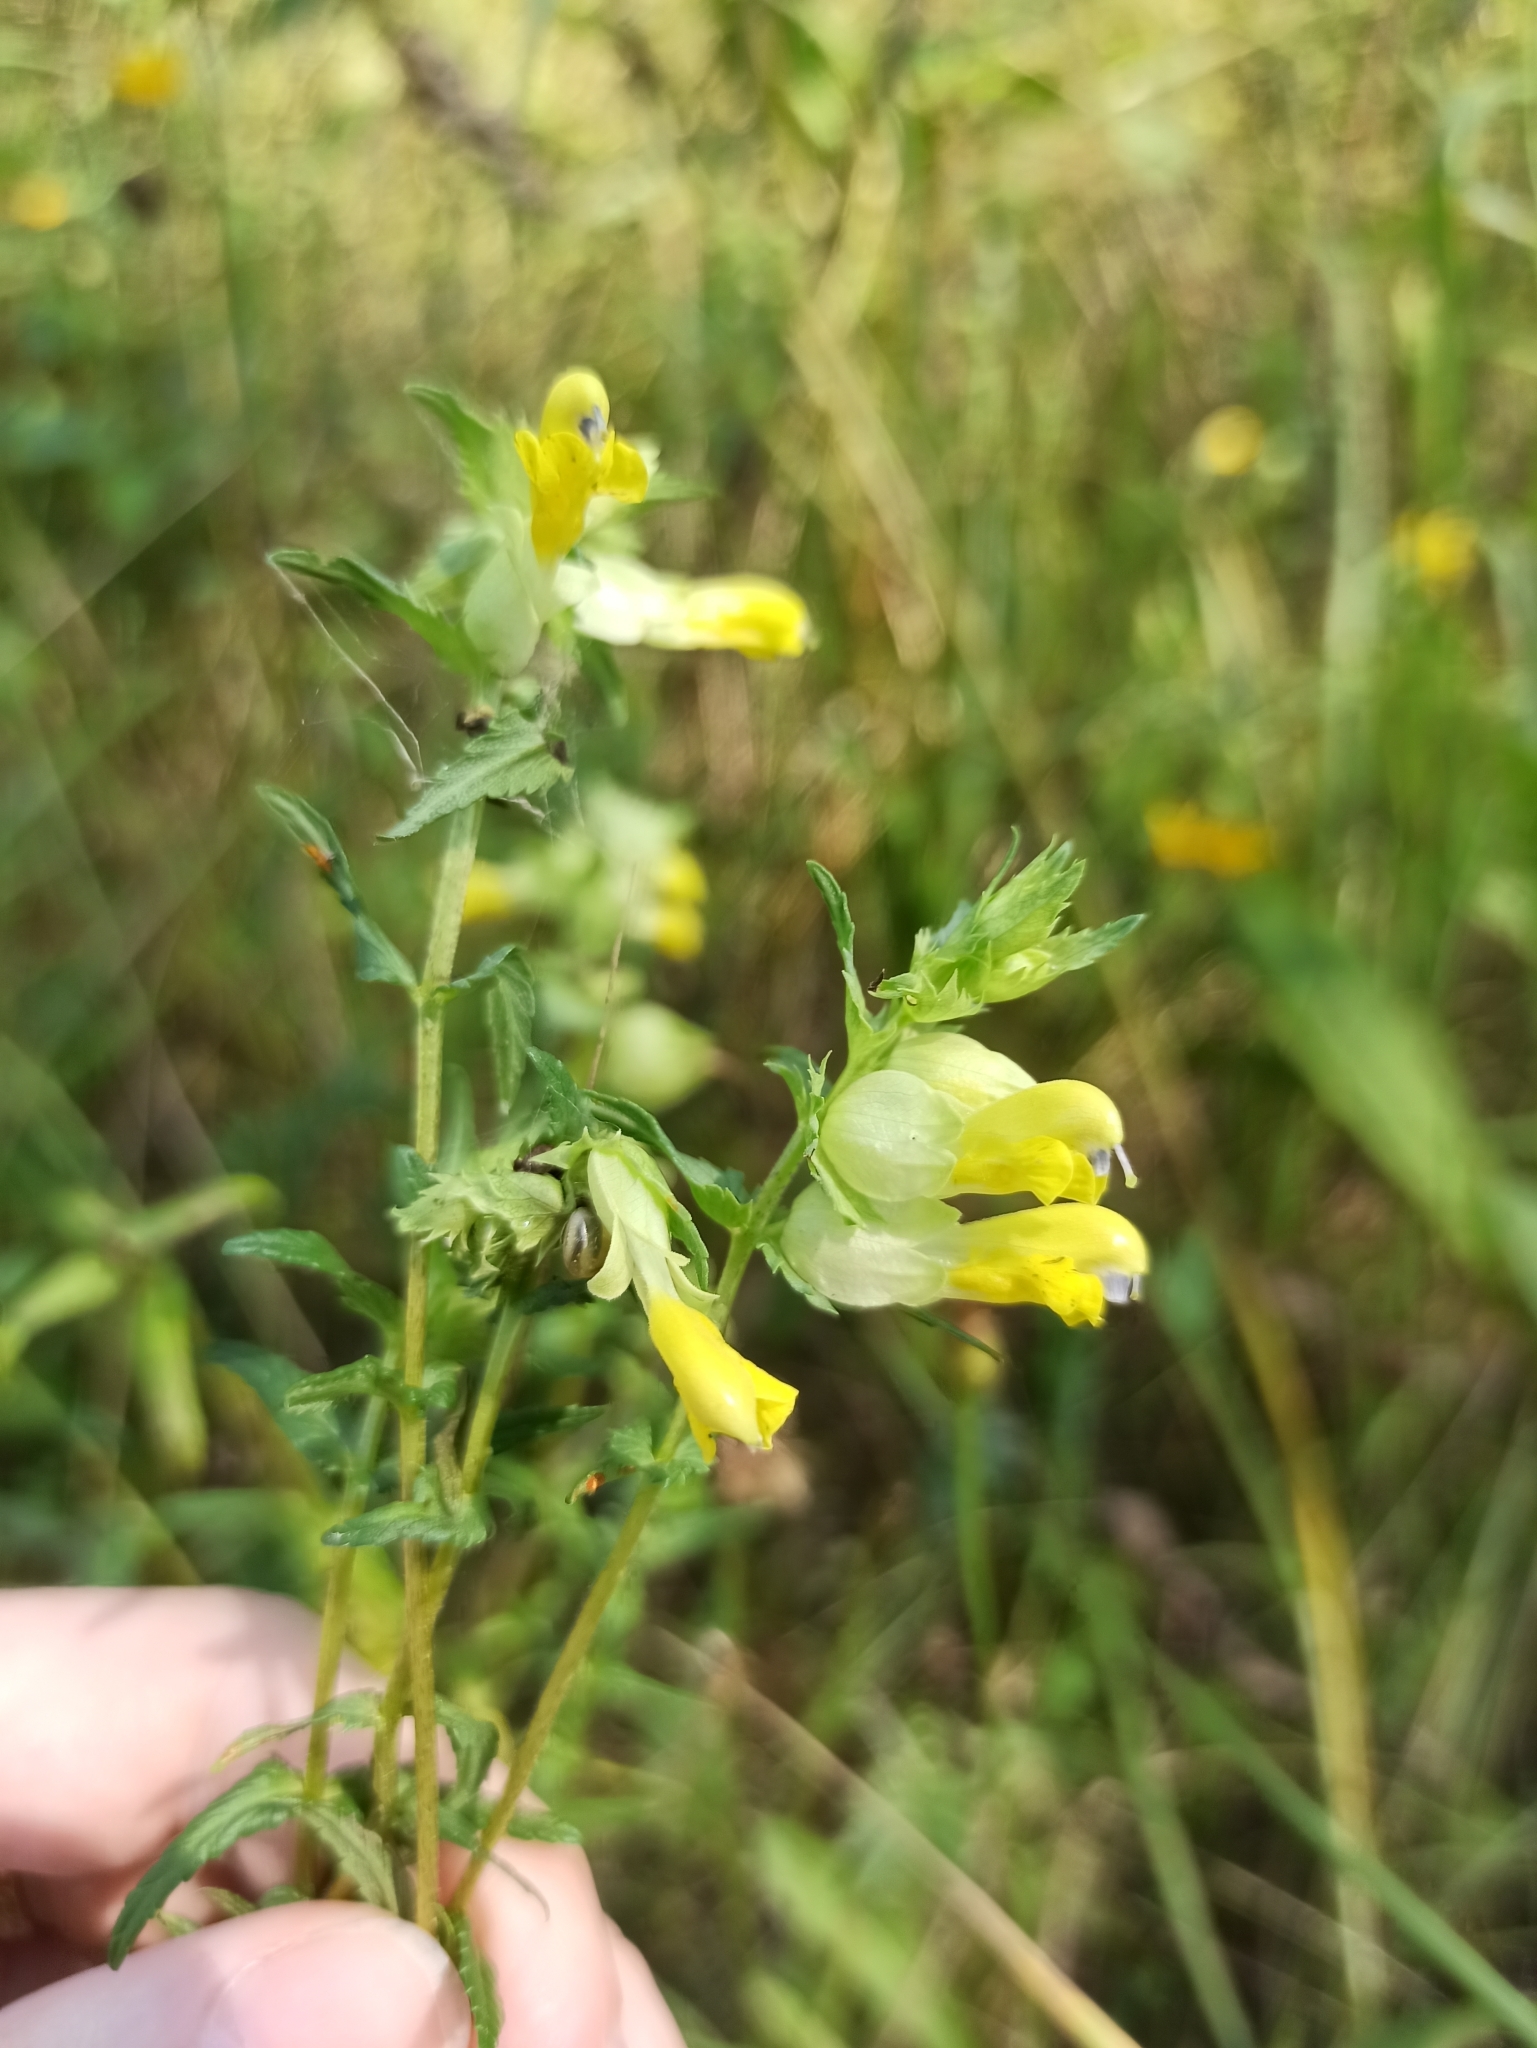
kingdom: Plantae
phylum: Tracheophyta
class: Magnoliopsida
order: Lamiales
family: Orobanchaceae
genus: Rhinanthus
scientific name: Rhinanthus serotinus
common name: Late-flowering yellow rattle
